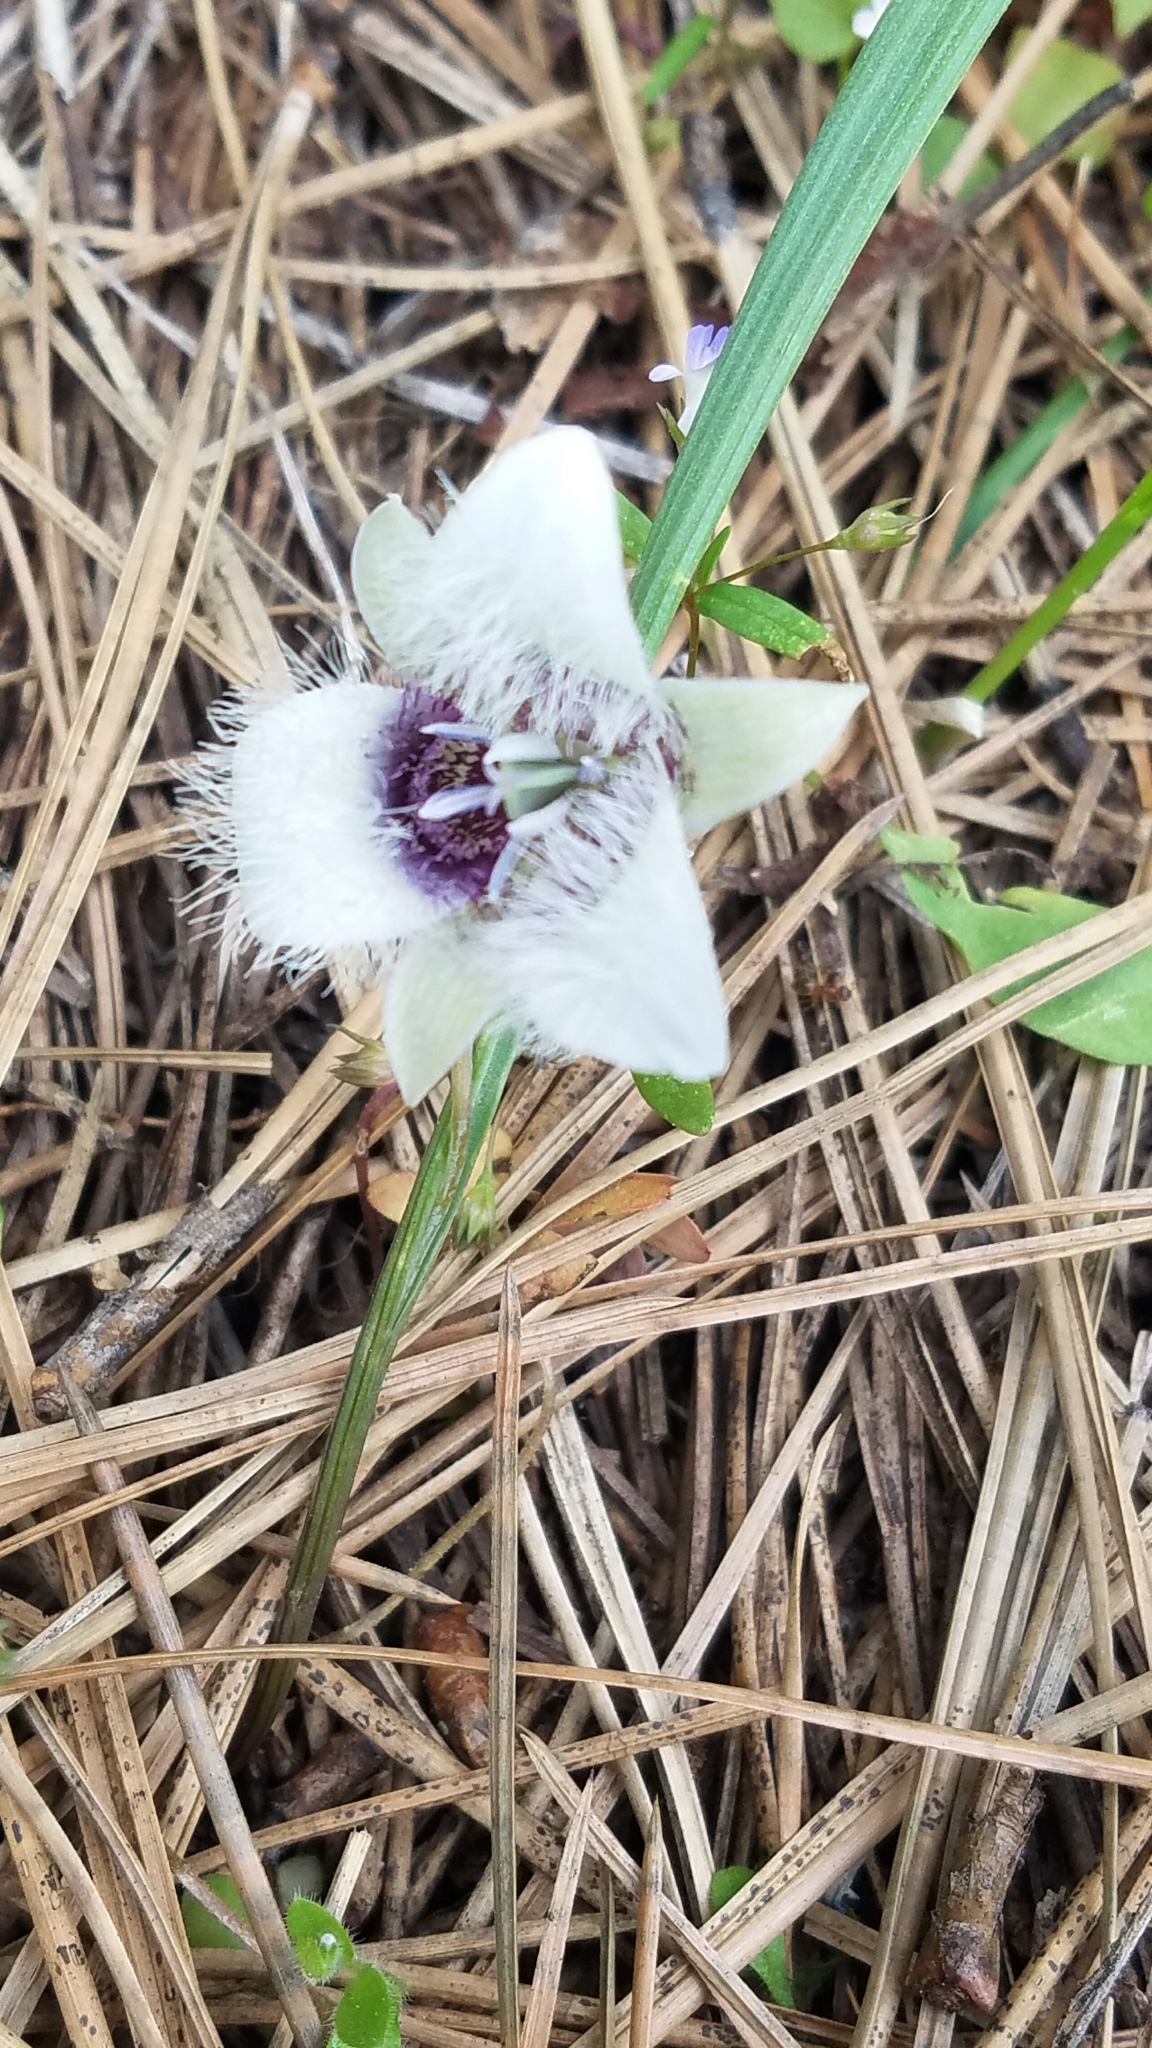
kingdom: Plantae
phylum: Tracheophyta
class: Liliopsida
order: Liliales
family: Liliaceae
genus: Calochortus
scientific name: Calochortus elegans
